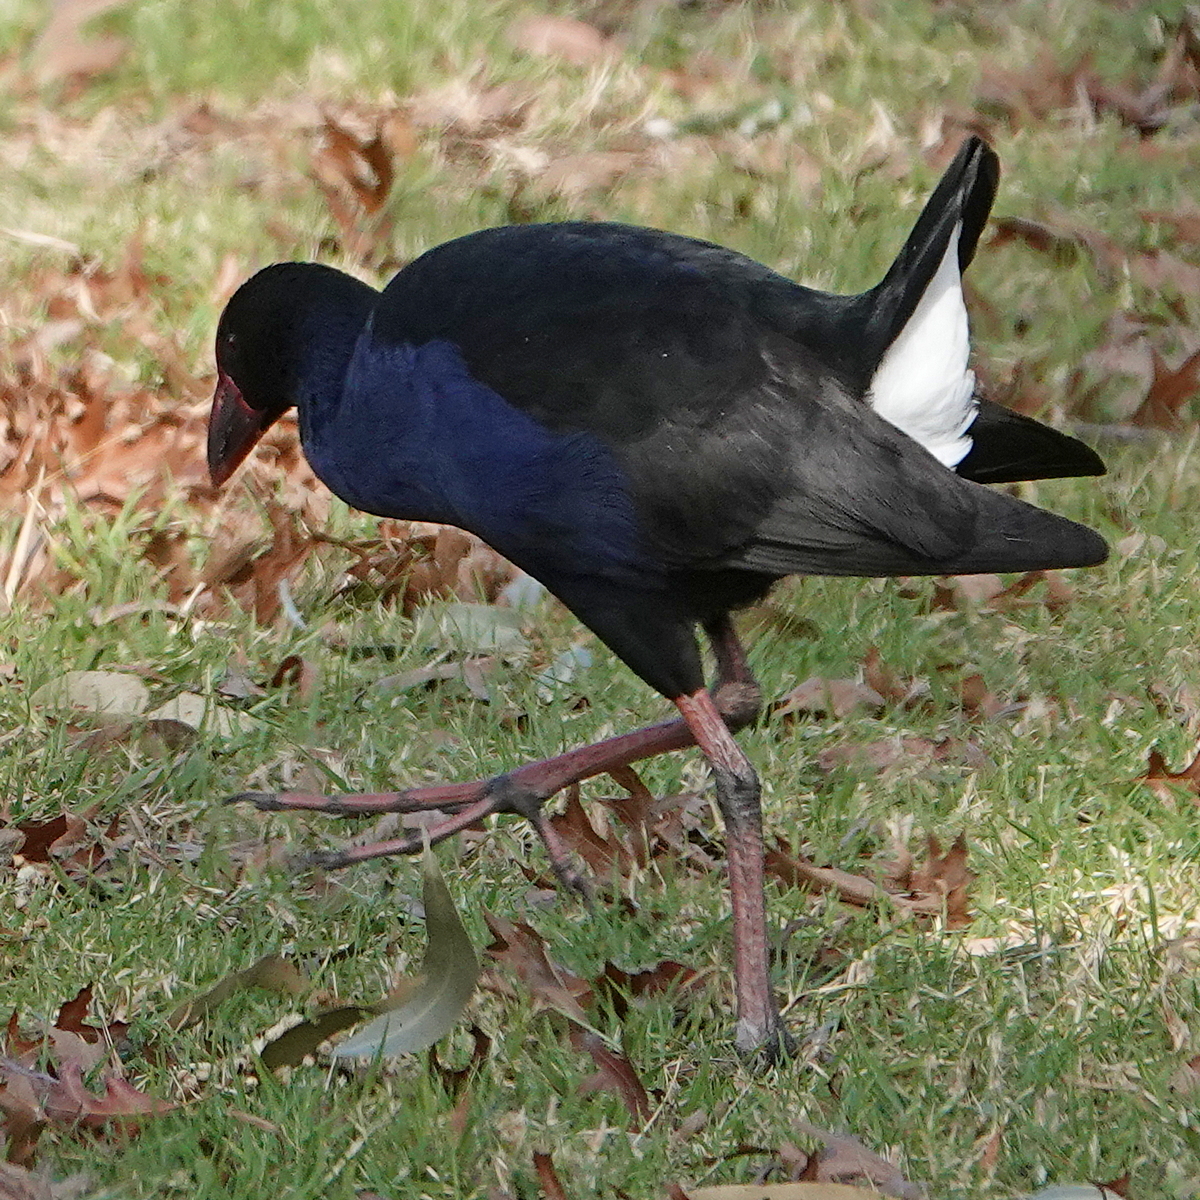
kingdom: Animalia
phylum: Chordata
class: Aves
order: Gruiformes
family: Rallidae
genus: Porphyrio
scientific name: Porphyrio melanotus
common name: Australasian swamphen
